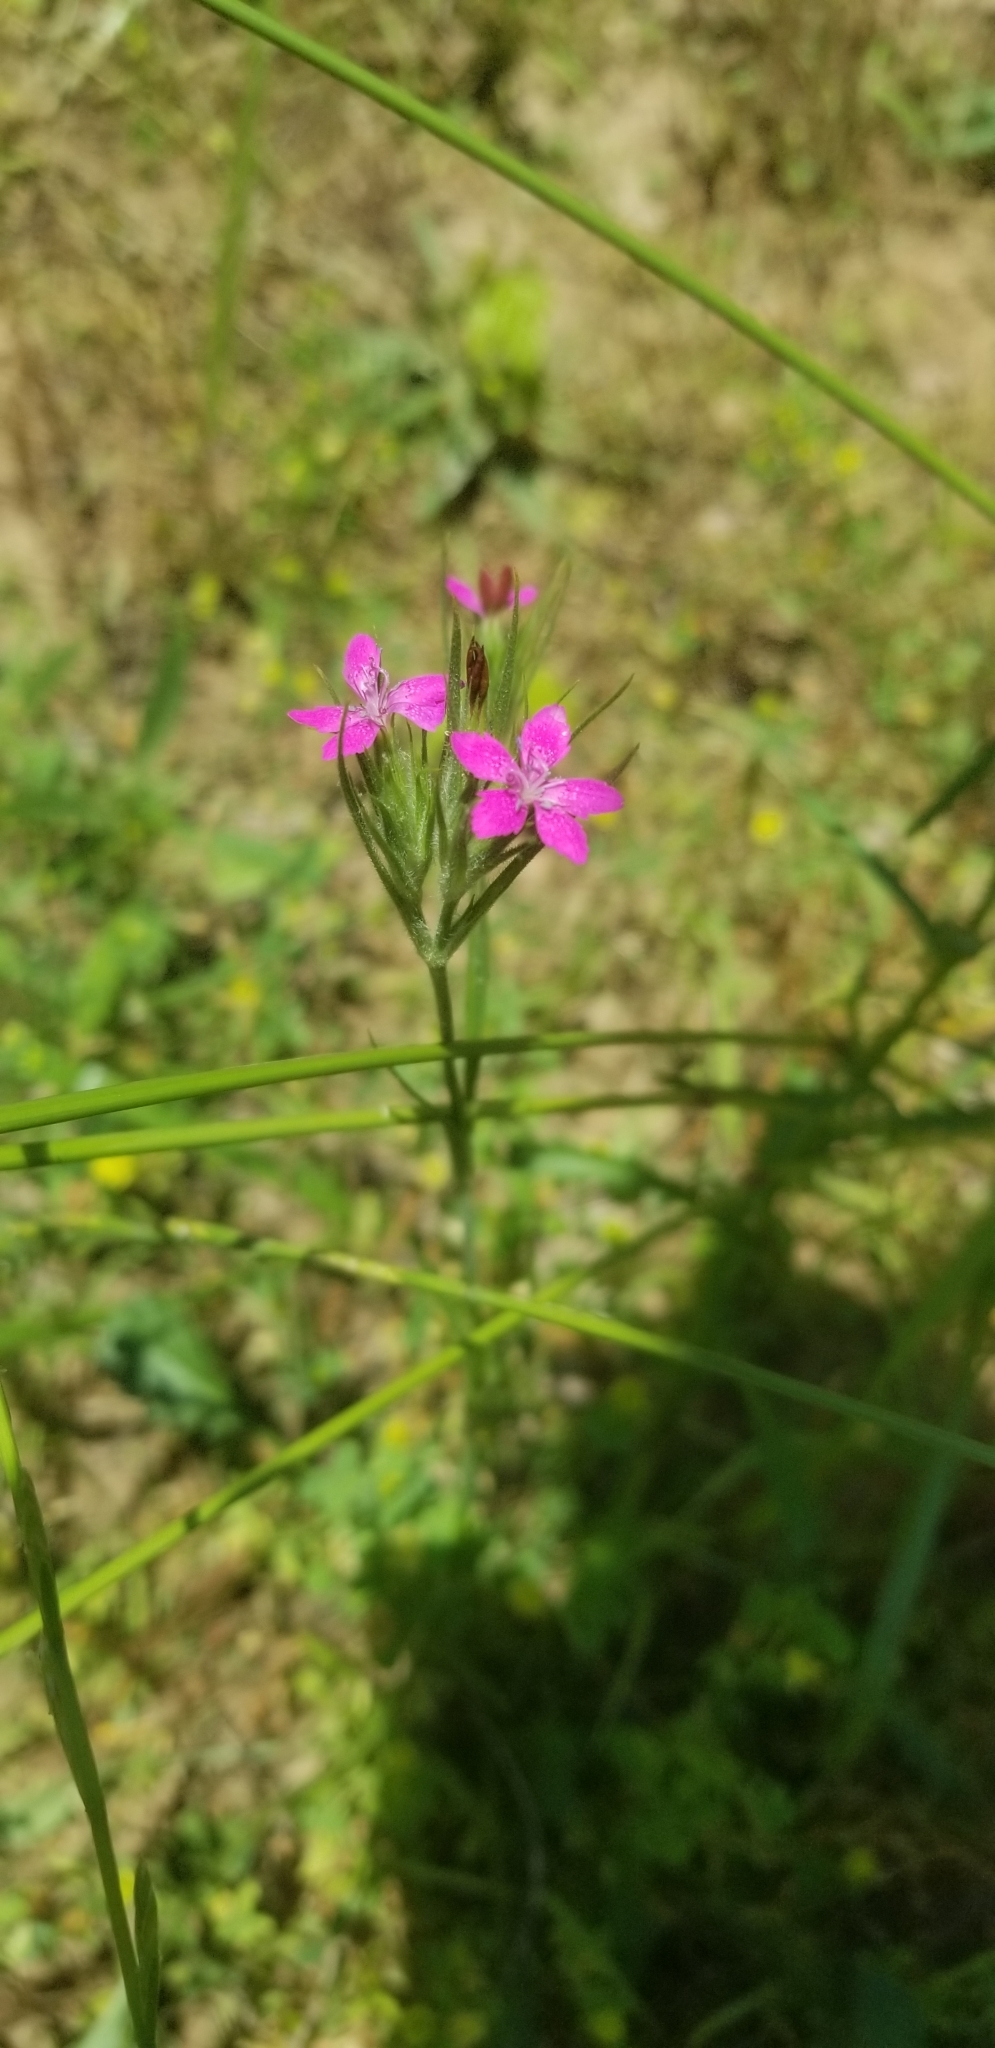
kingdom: Plantae
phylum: Tracheophyta
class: Magnoliopsida
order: Caryophyllales
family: Caryophyllaceae
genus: Dianthus
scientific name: Dianthus armeria
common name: Deptford pink
